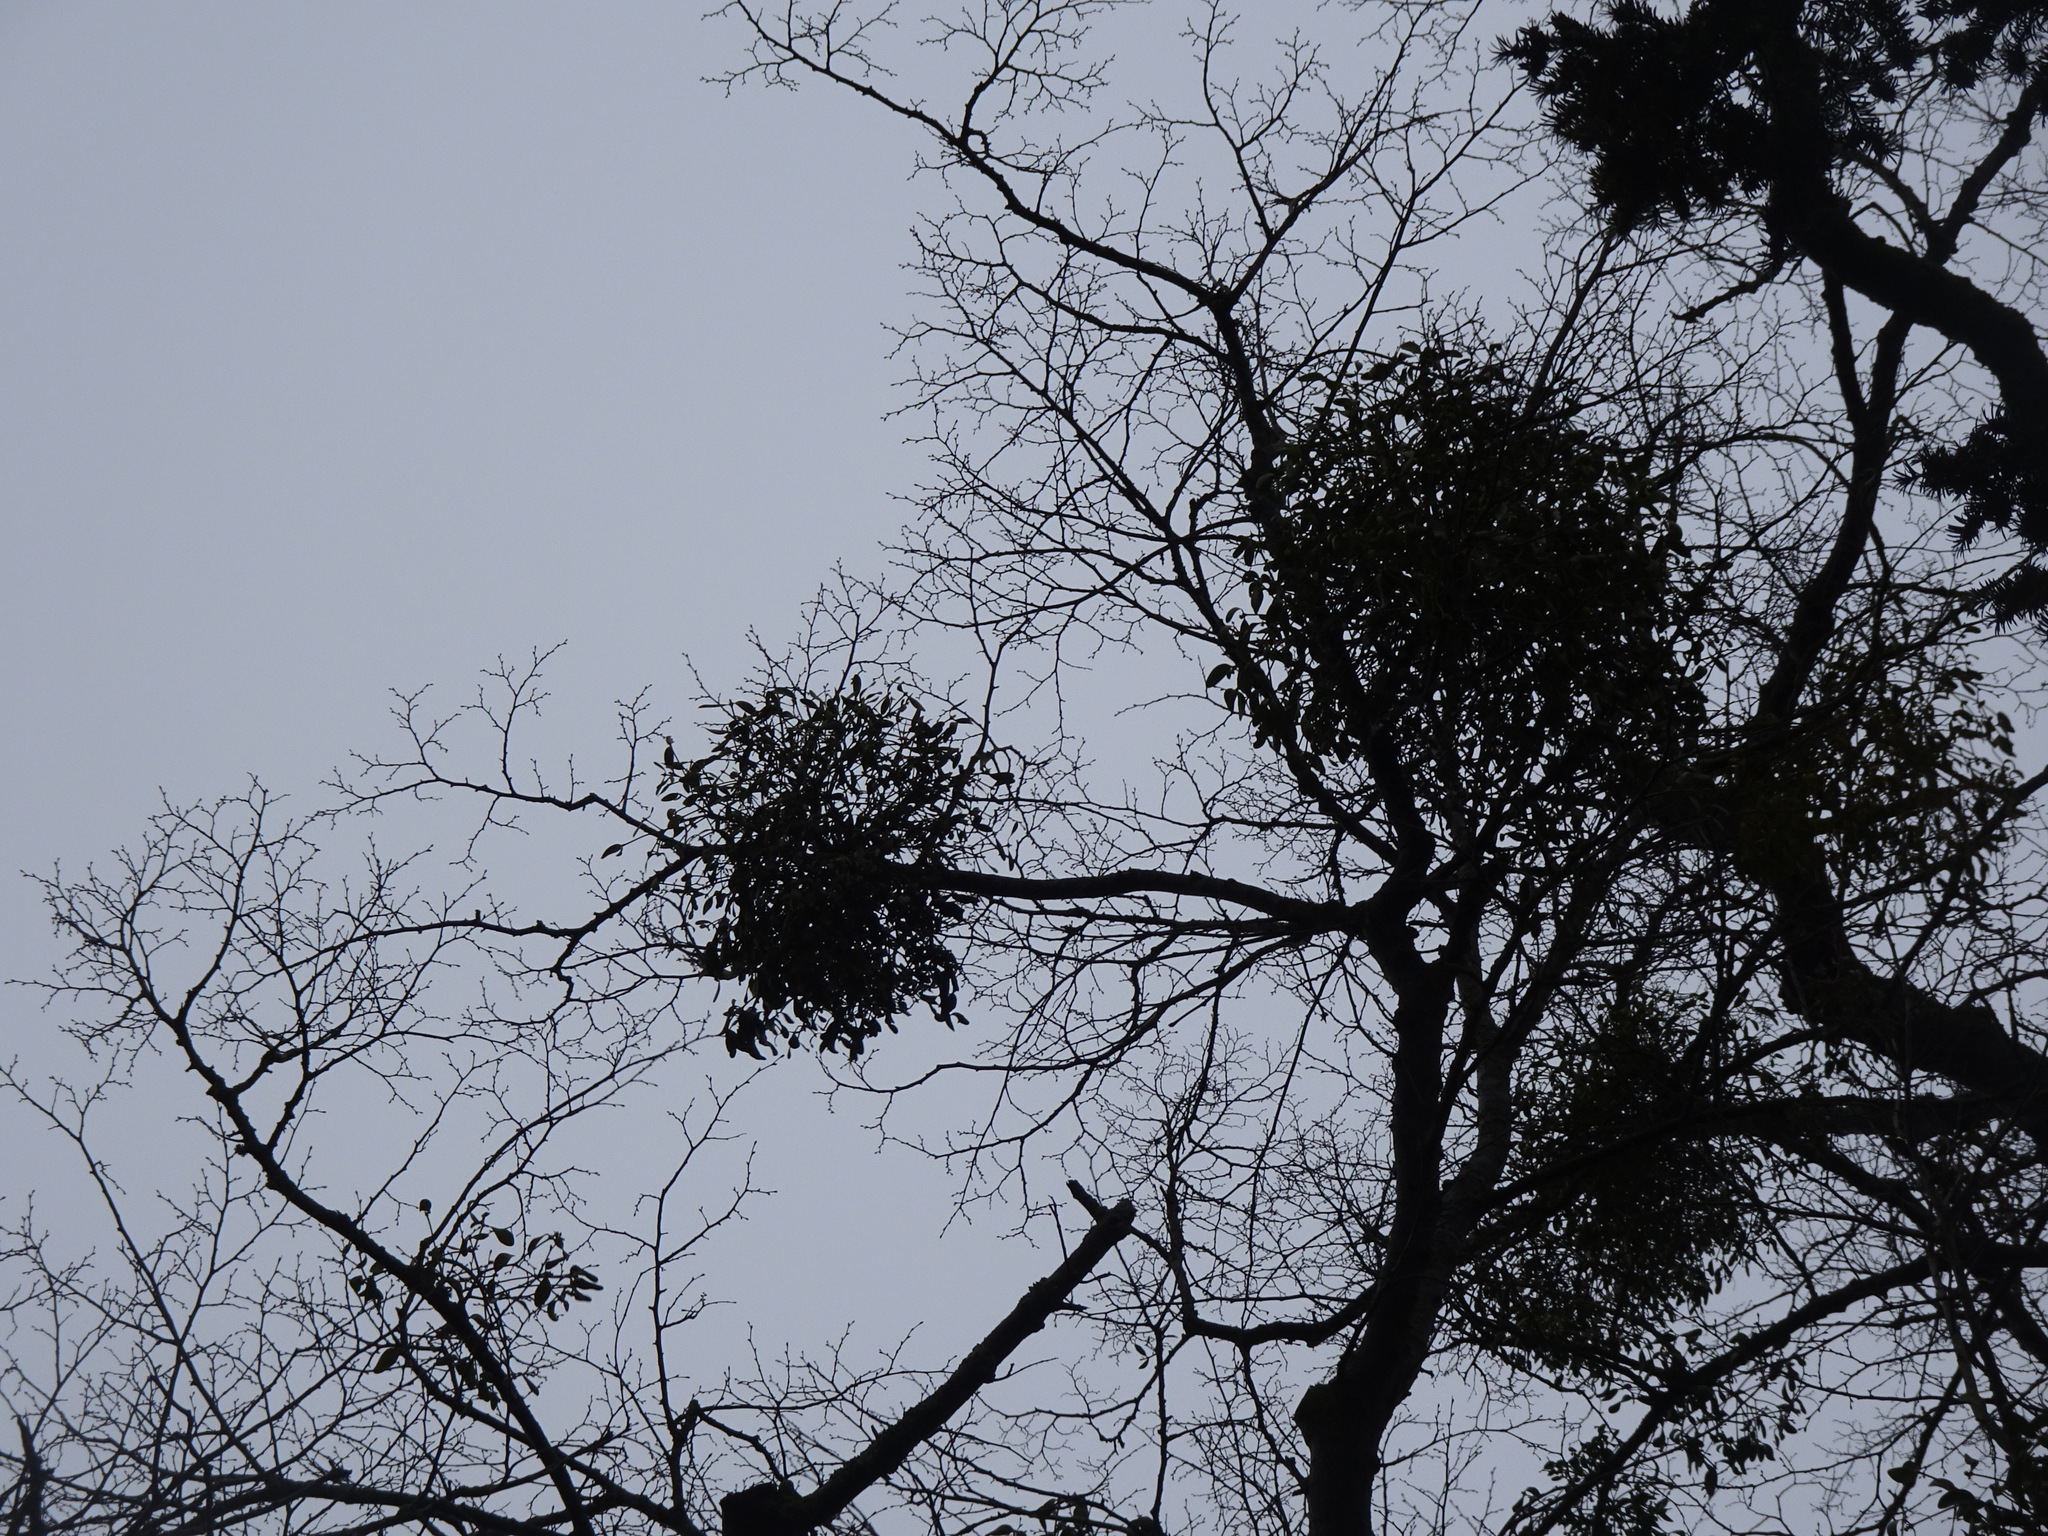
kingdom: Plantae
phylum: Tracheophyta
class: Magnoliopsida
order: Santalales
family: Viscaceae
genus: Viscum
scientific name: Viscum album
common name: Mistletoe
